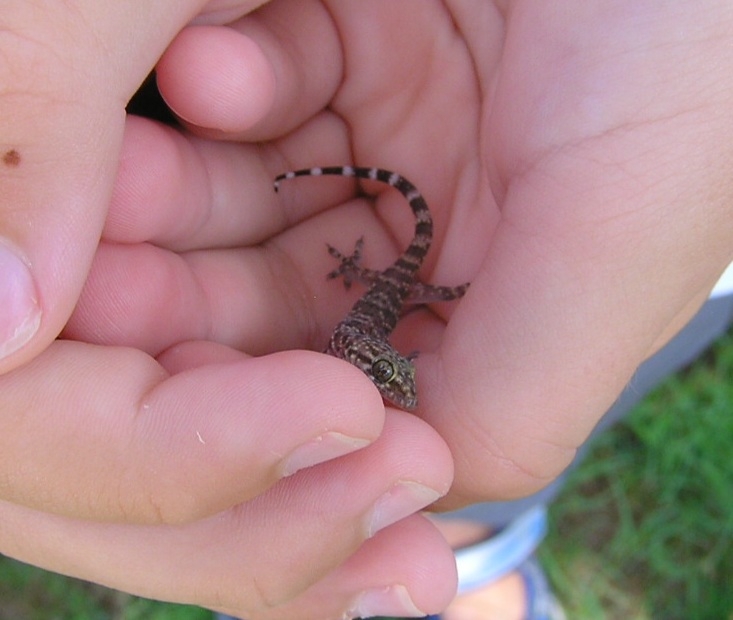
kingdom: Animalia
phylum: Chordata
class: Squamata
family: Gekkonidae
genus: Hemidactylus
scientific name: Hemidactylus turcicus
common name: Turkish gecko
